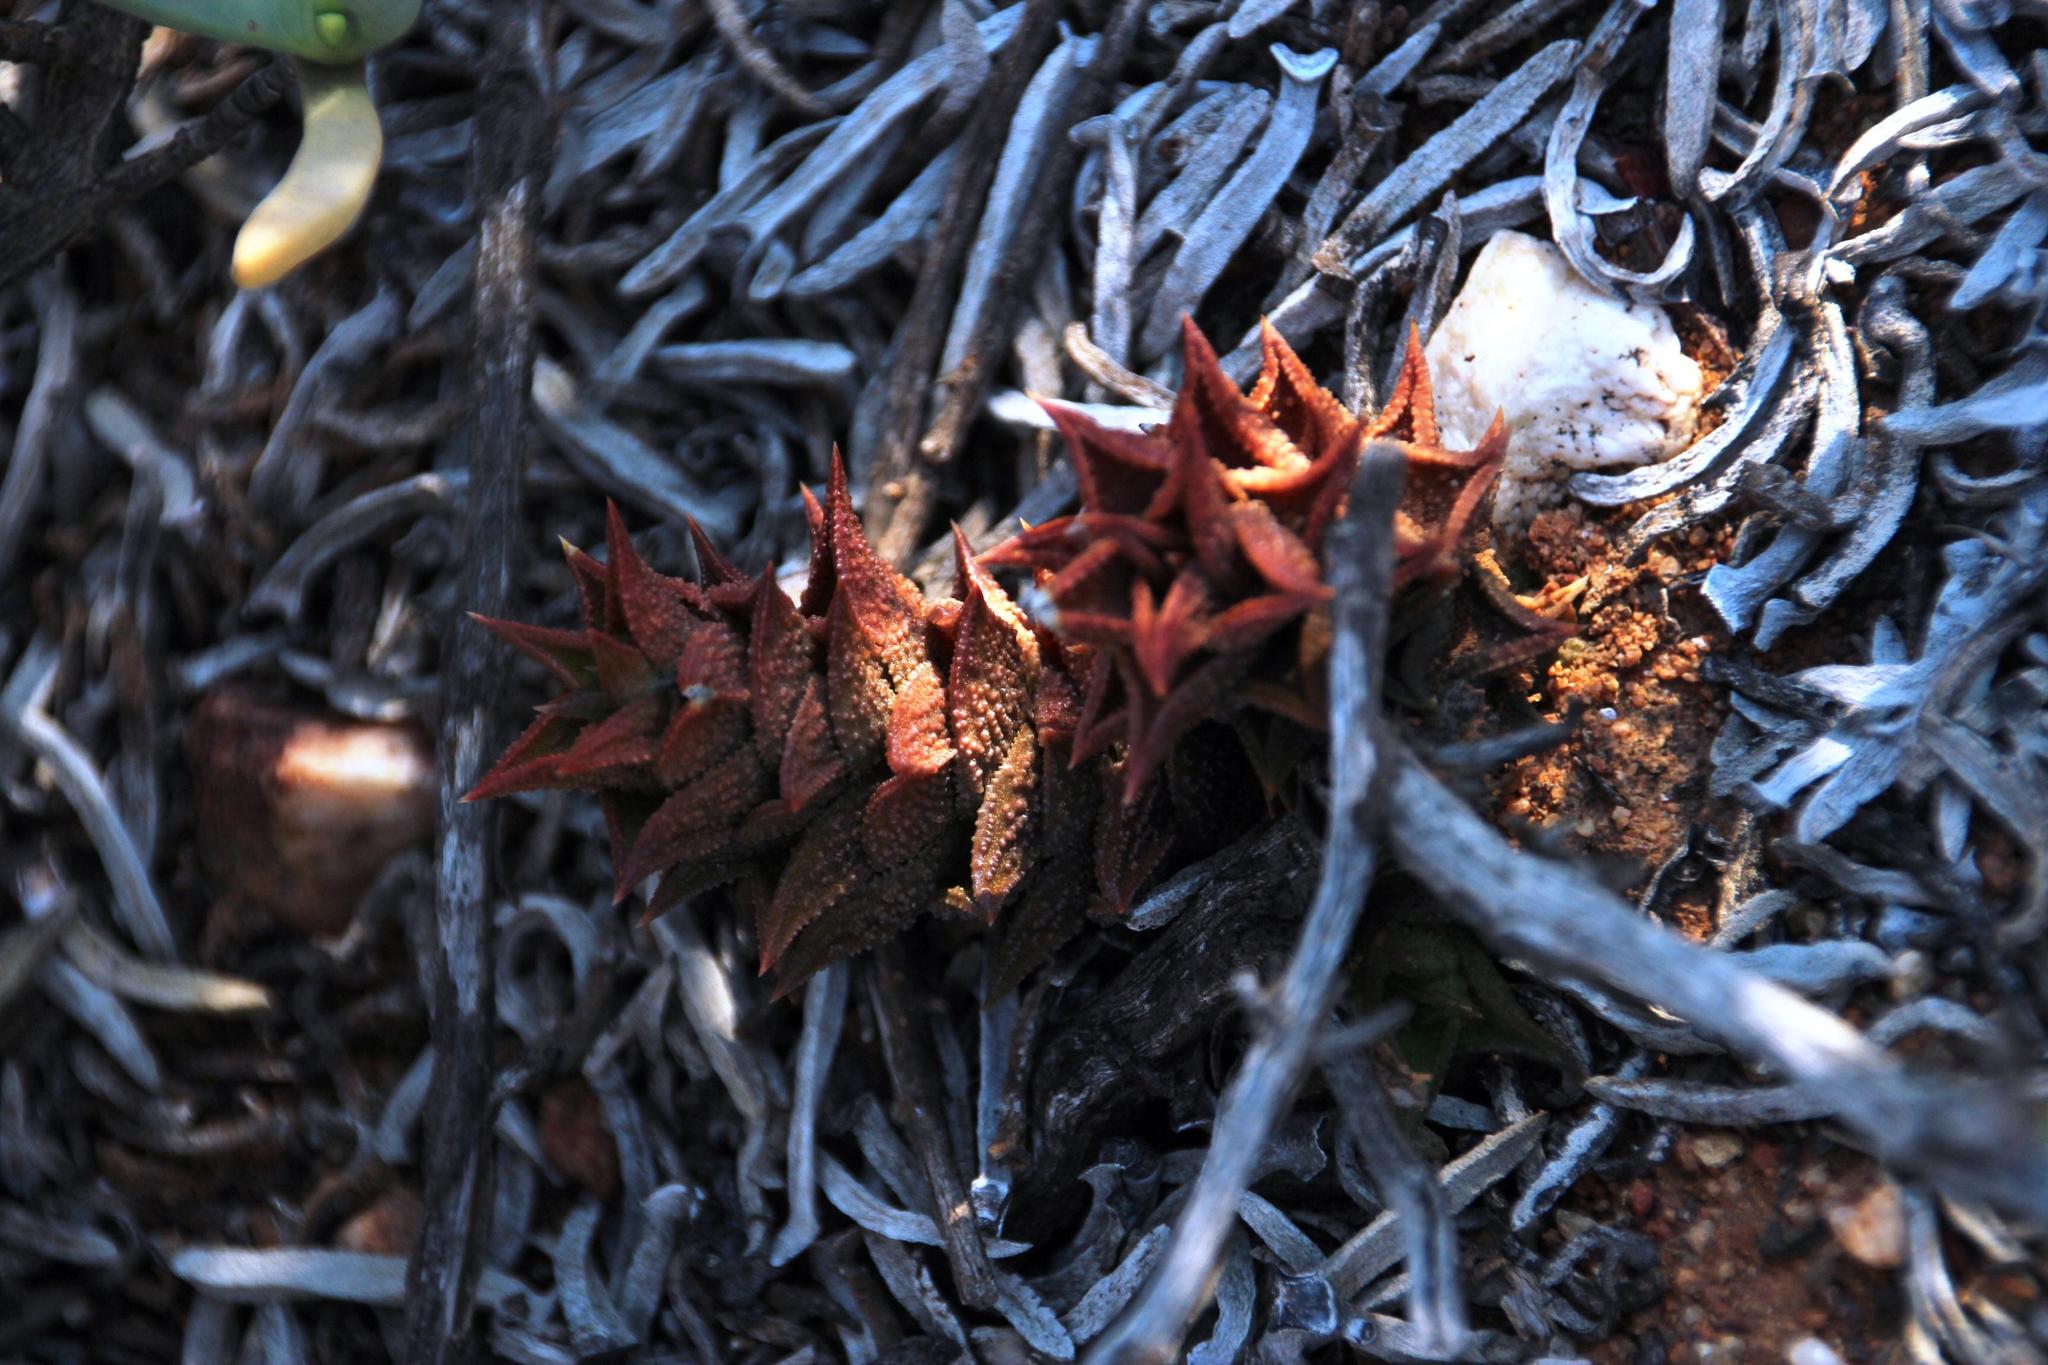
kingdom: Plantae
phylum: Tracheophyta
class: Liliopsida
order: Asparagales
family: Asphodelaceae
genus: Astroloba
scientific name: Astroloba corrugata
